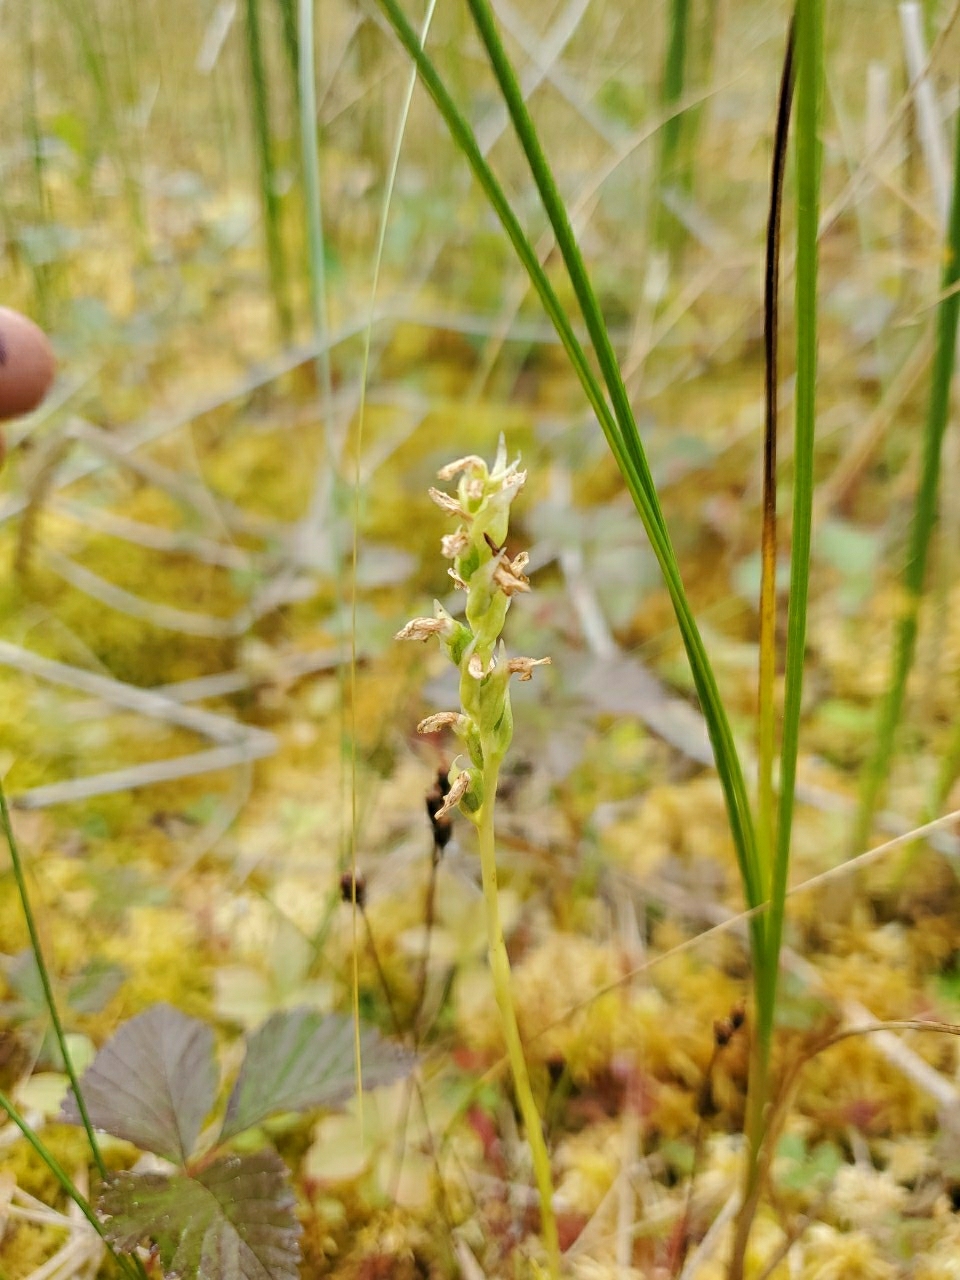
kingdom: Plantae
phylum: Tracheophyta
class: Liliopsida
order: Asparagales
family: Orchidaceae
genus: Spiranthes
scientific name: Spiranthes romanzoffiana
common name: Irish lady's-tresses
